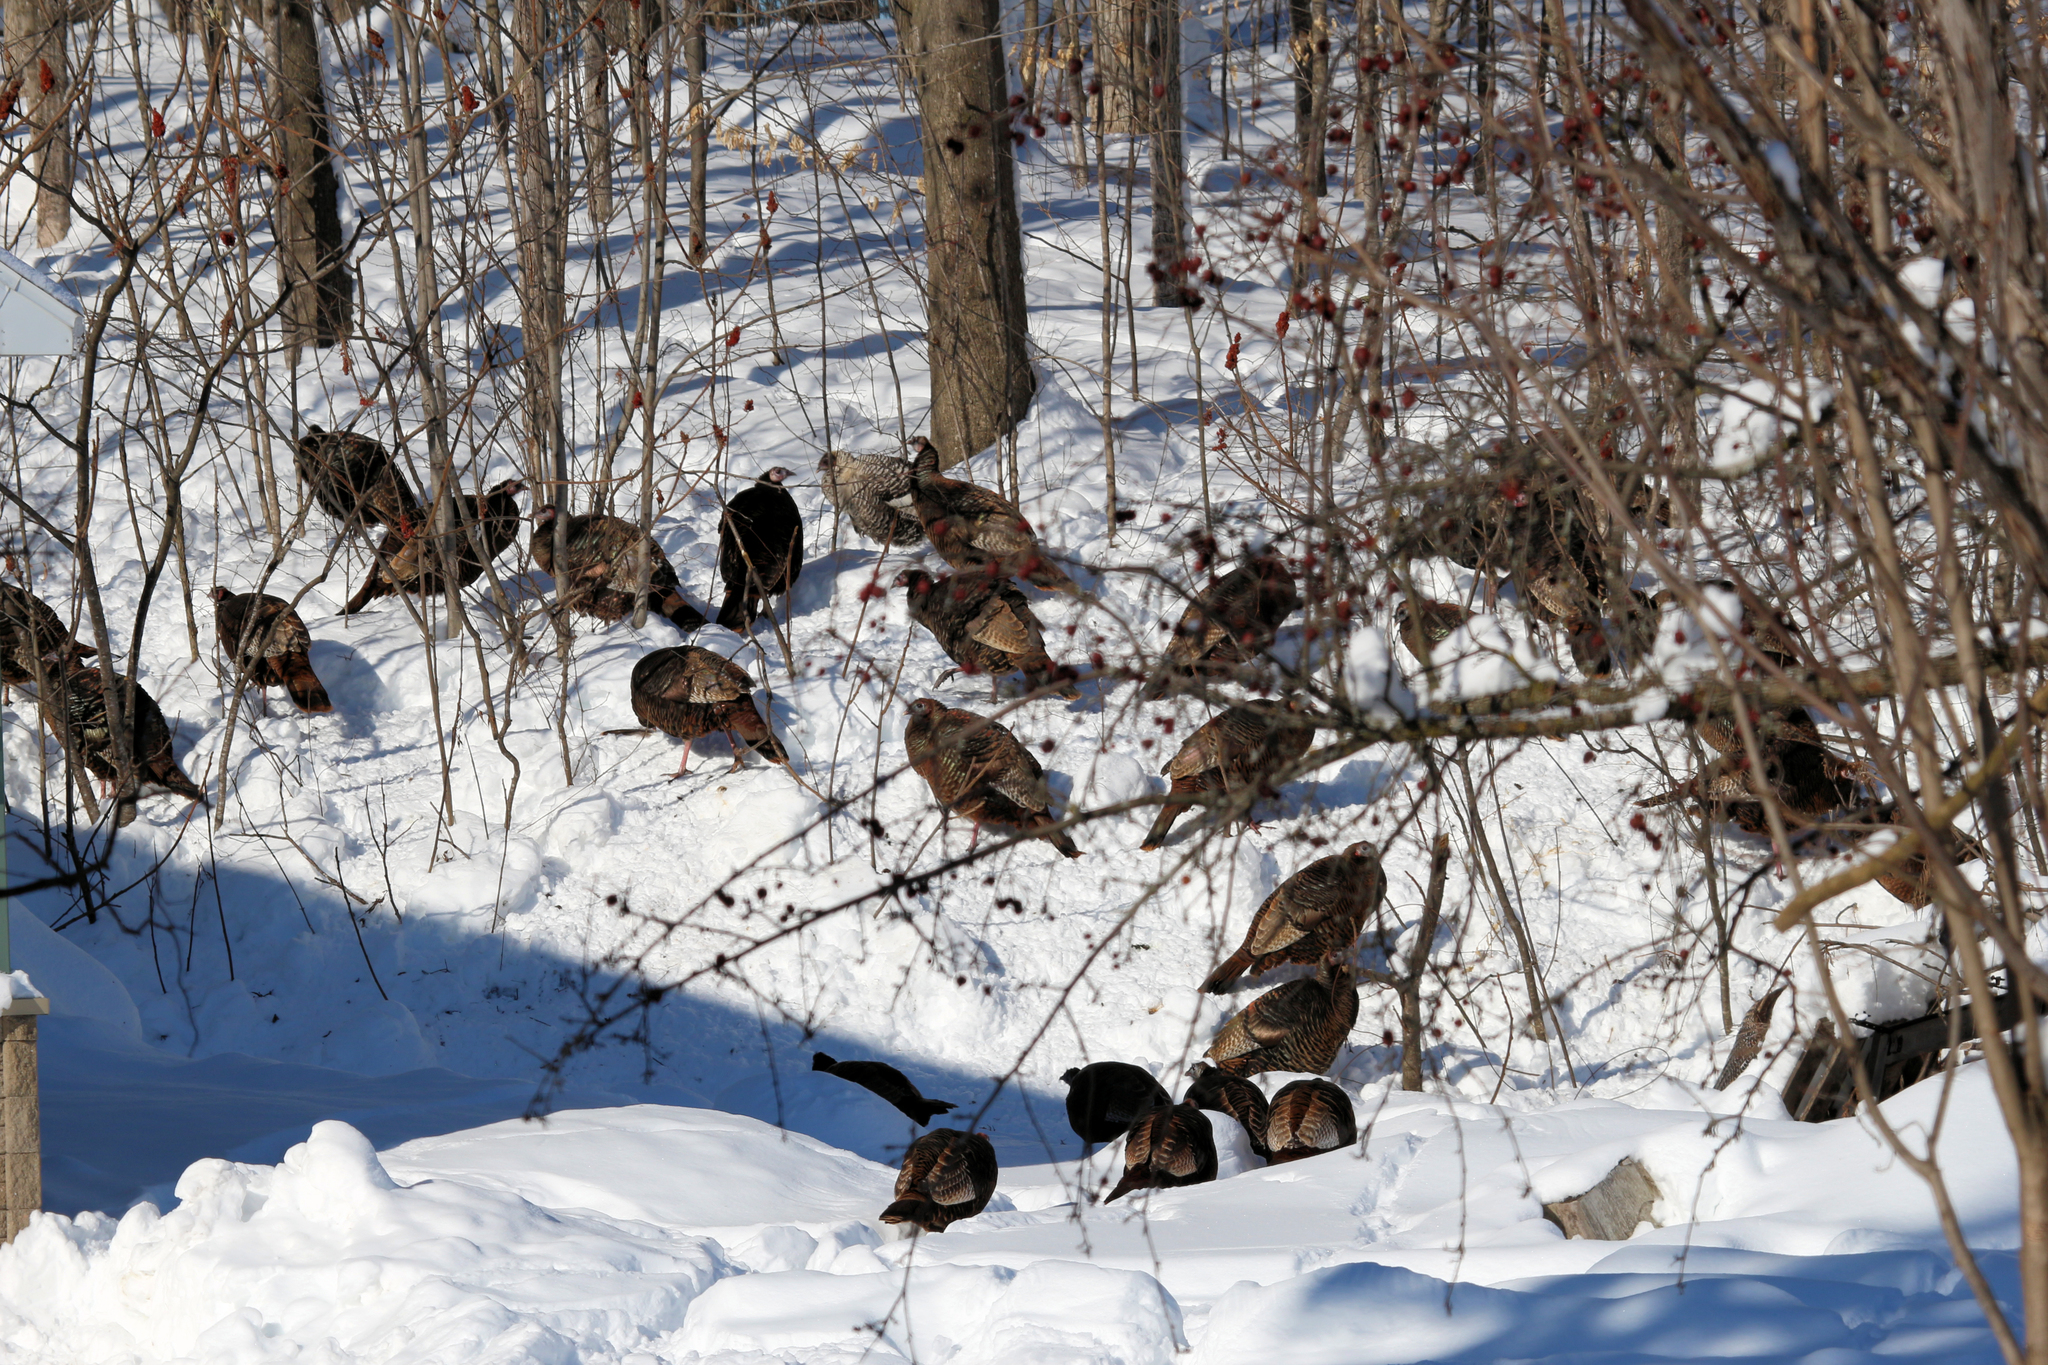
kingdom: Animalia
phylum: Chordata
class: Aves
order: Galliformes
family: Phasianidae
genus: Meleagris
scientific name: Meleagris gallopavo
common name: Wild turkey
